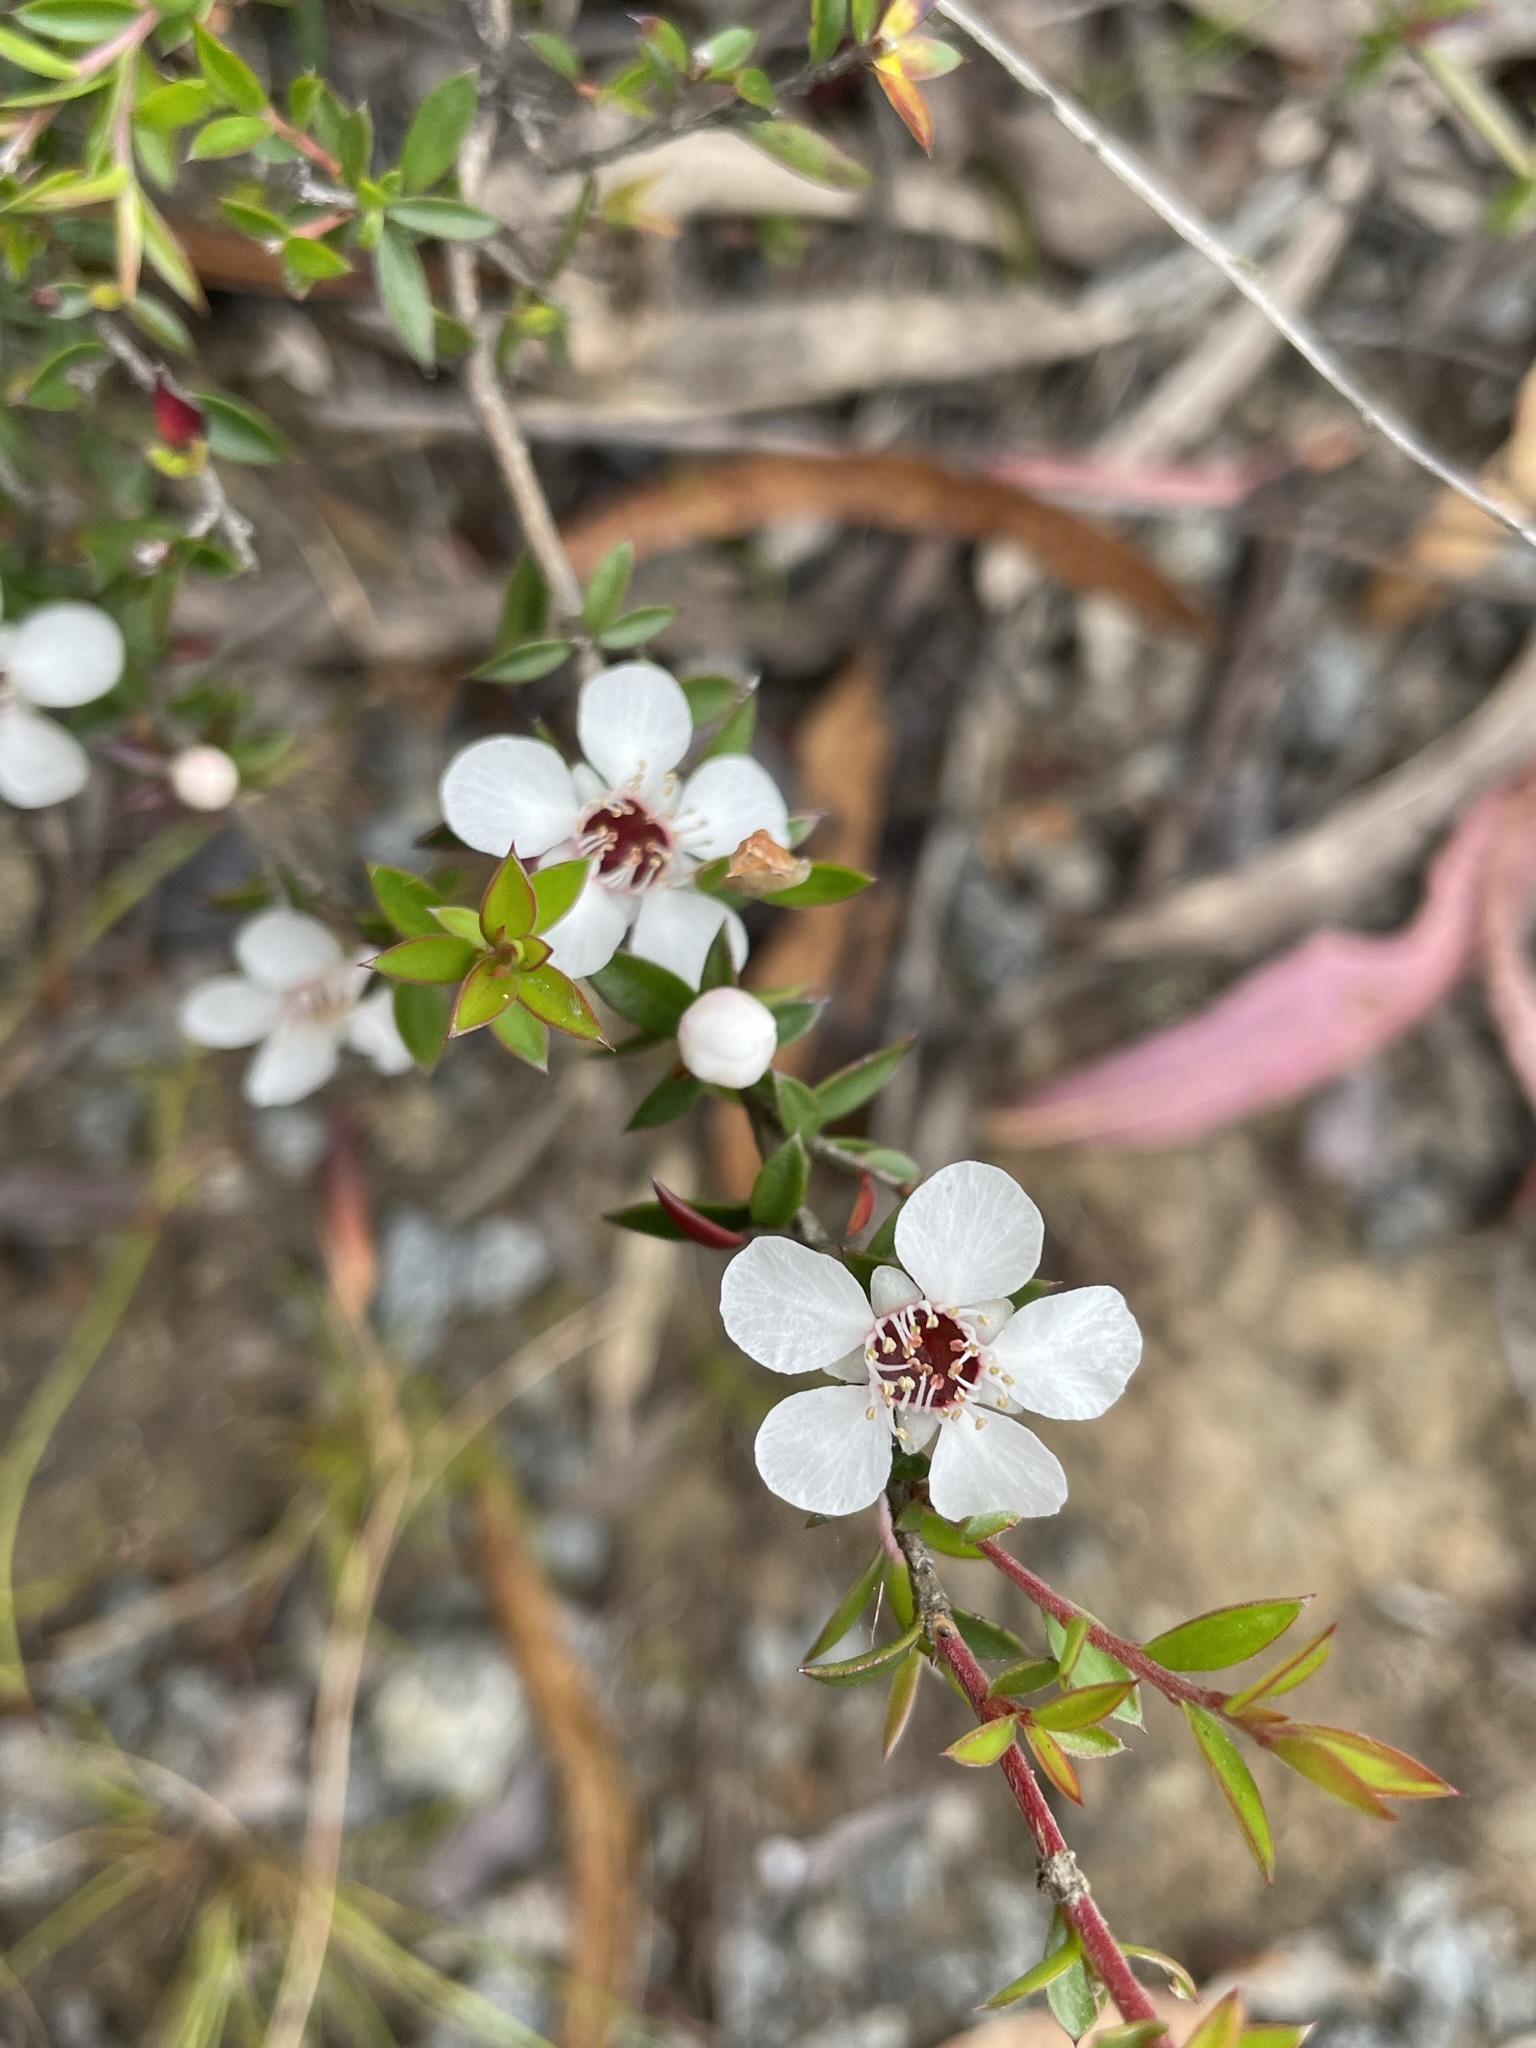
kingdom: Plantae
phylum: Tracheophyta
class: Magnoliopsida
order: Myrtales
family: Myrtaceae
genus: Leptospermum
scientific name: Leptospermum scoparium
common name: Broom tea-tree
